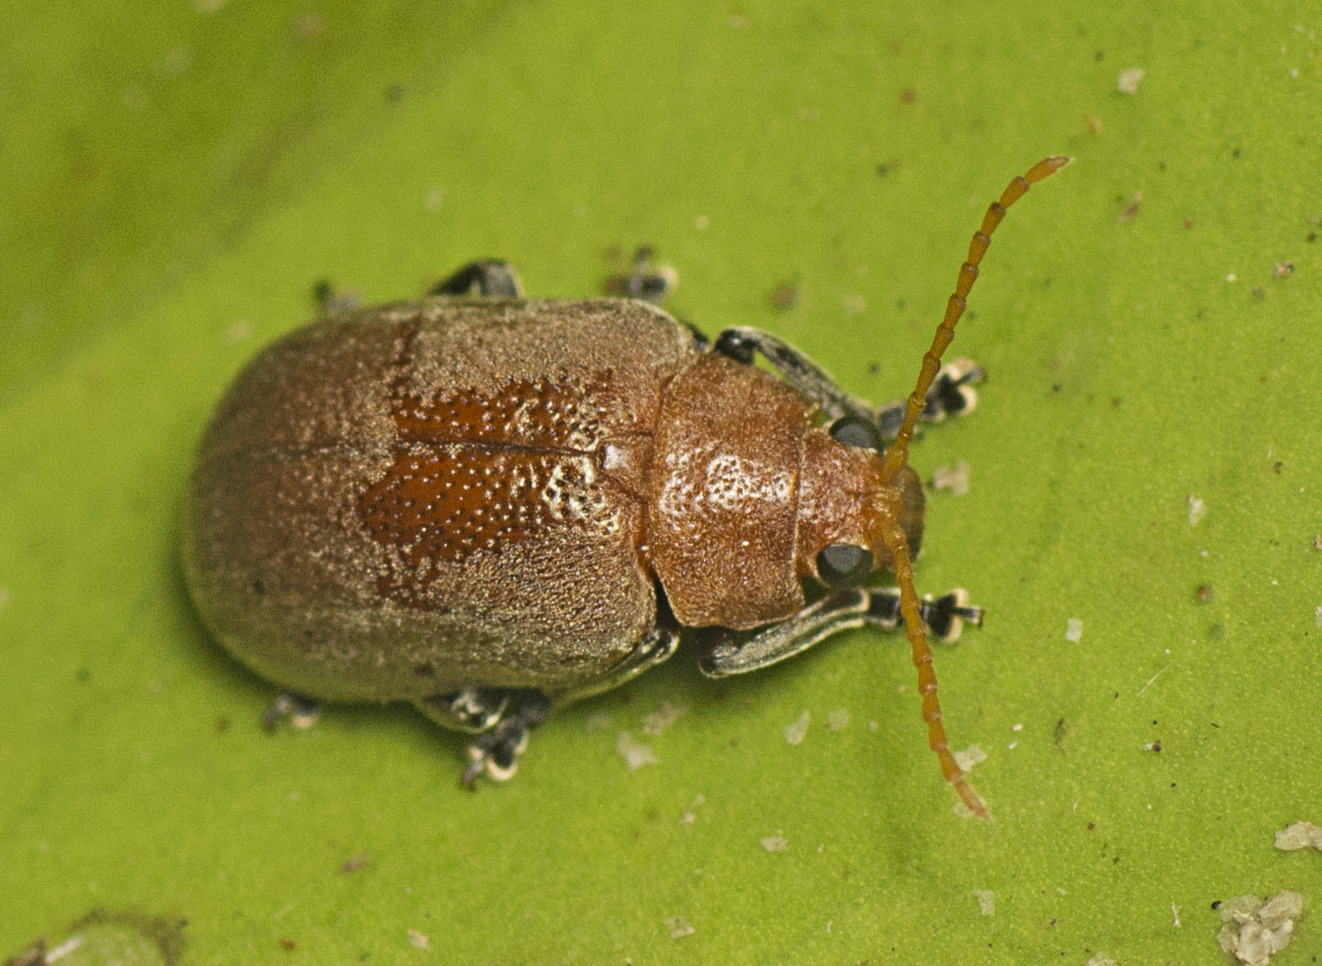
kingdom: Animalia
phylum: Arthropoda
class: Insecta
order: Coleoptera
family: Chrysomelidae
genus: Menippus
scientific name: Menippus
